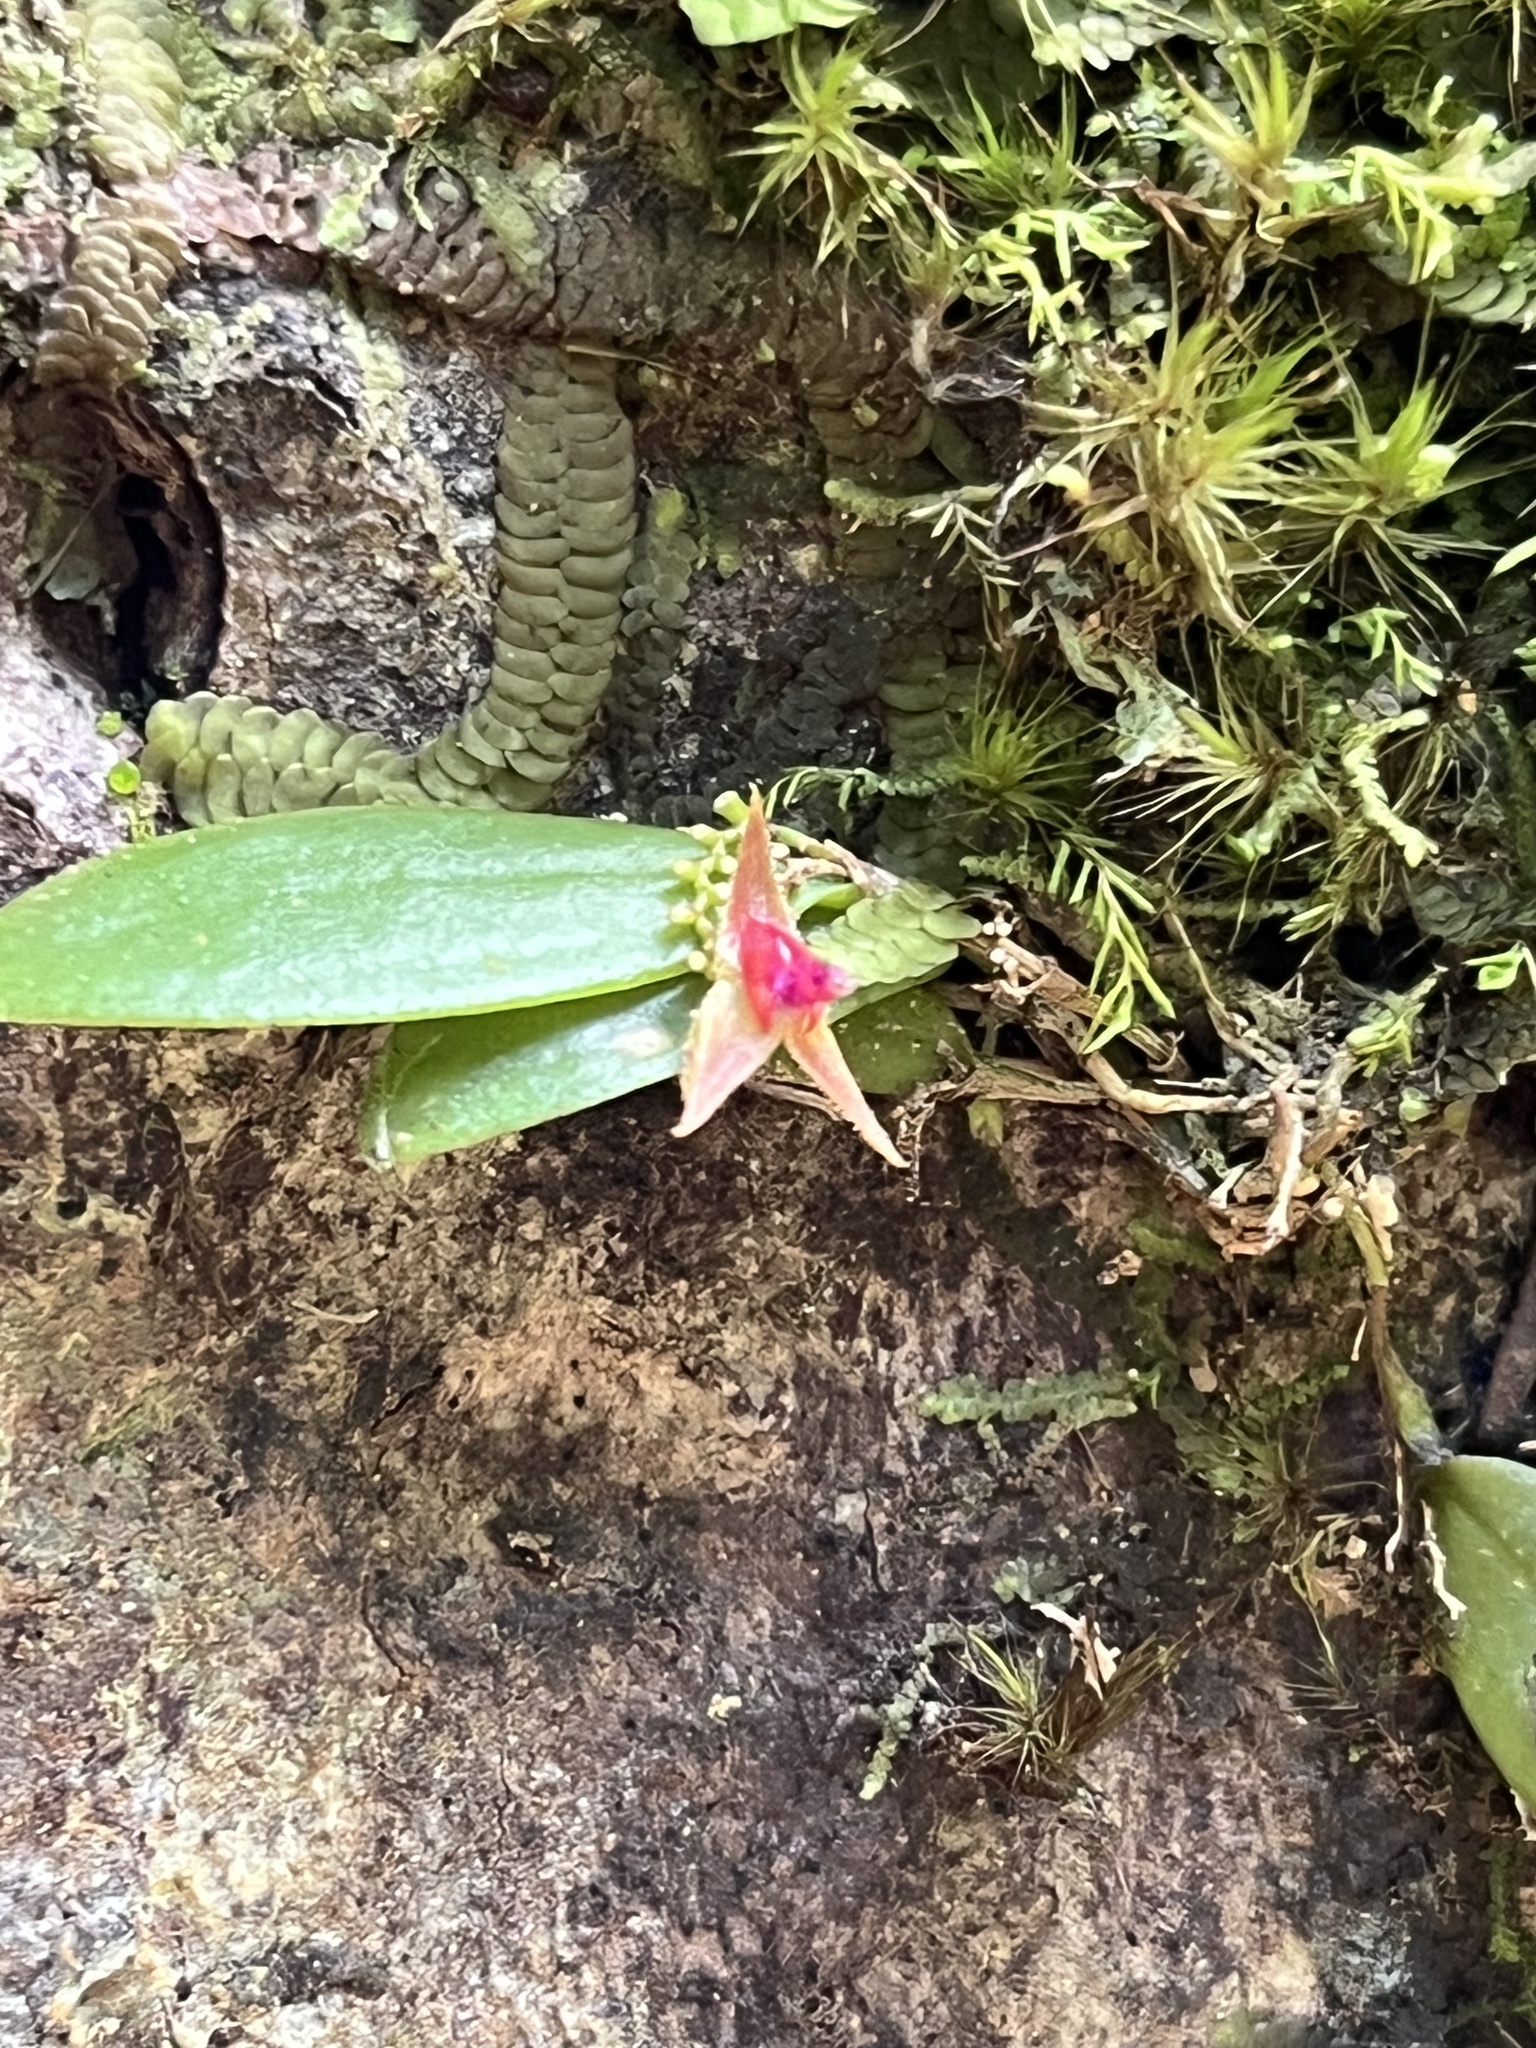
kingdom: Plantae
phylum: Tracheophyta
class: Liliopsida
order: Asparagales
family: Orchidaceae
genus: Lepanthes
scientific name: Lepanthes eltoroensis
